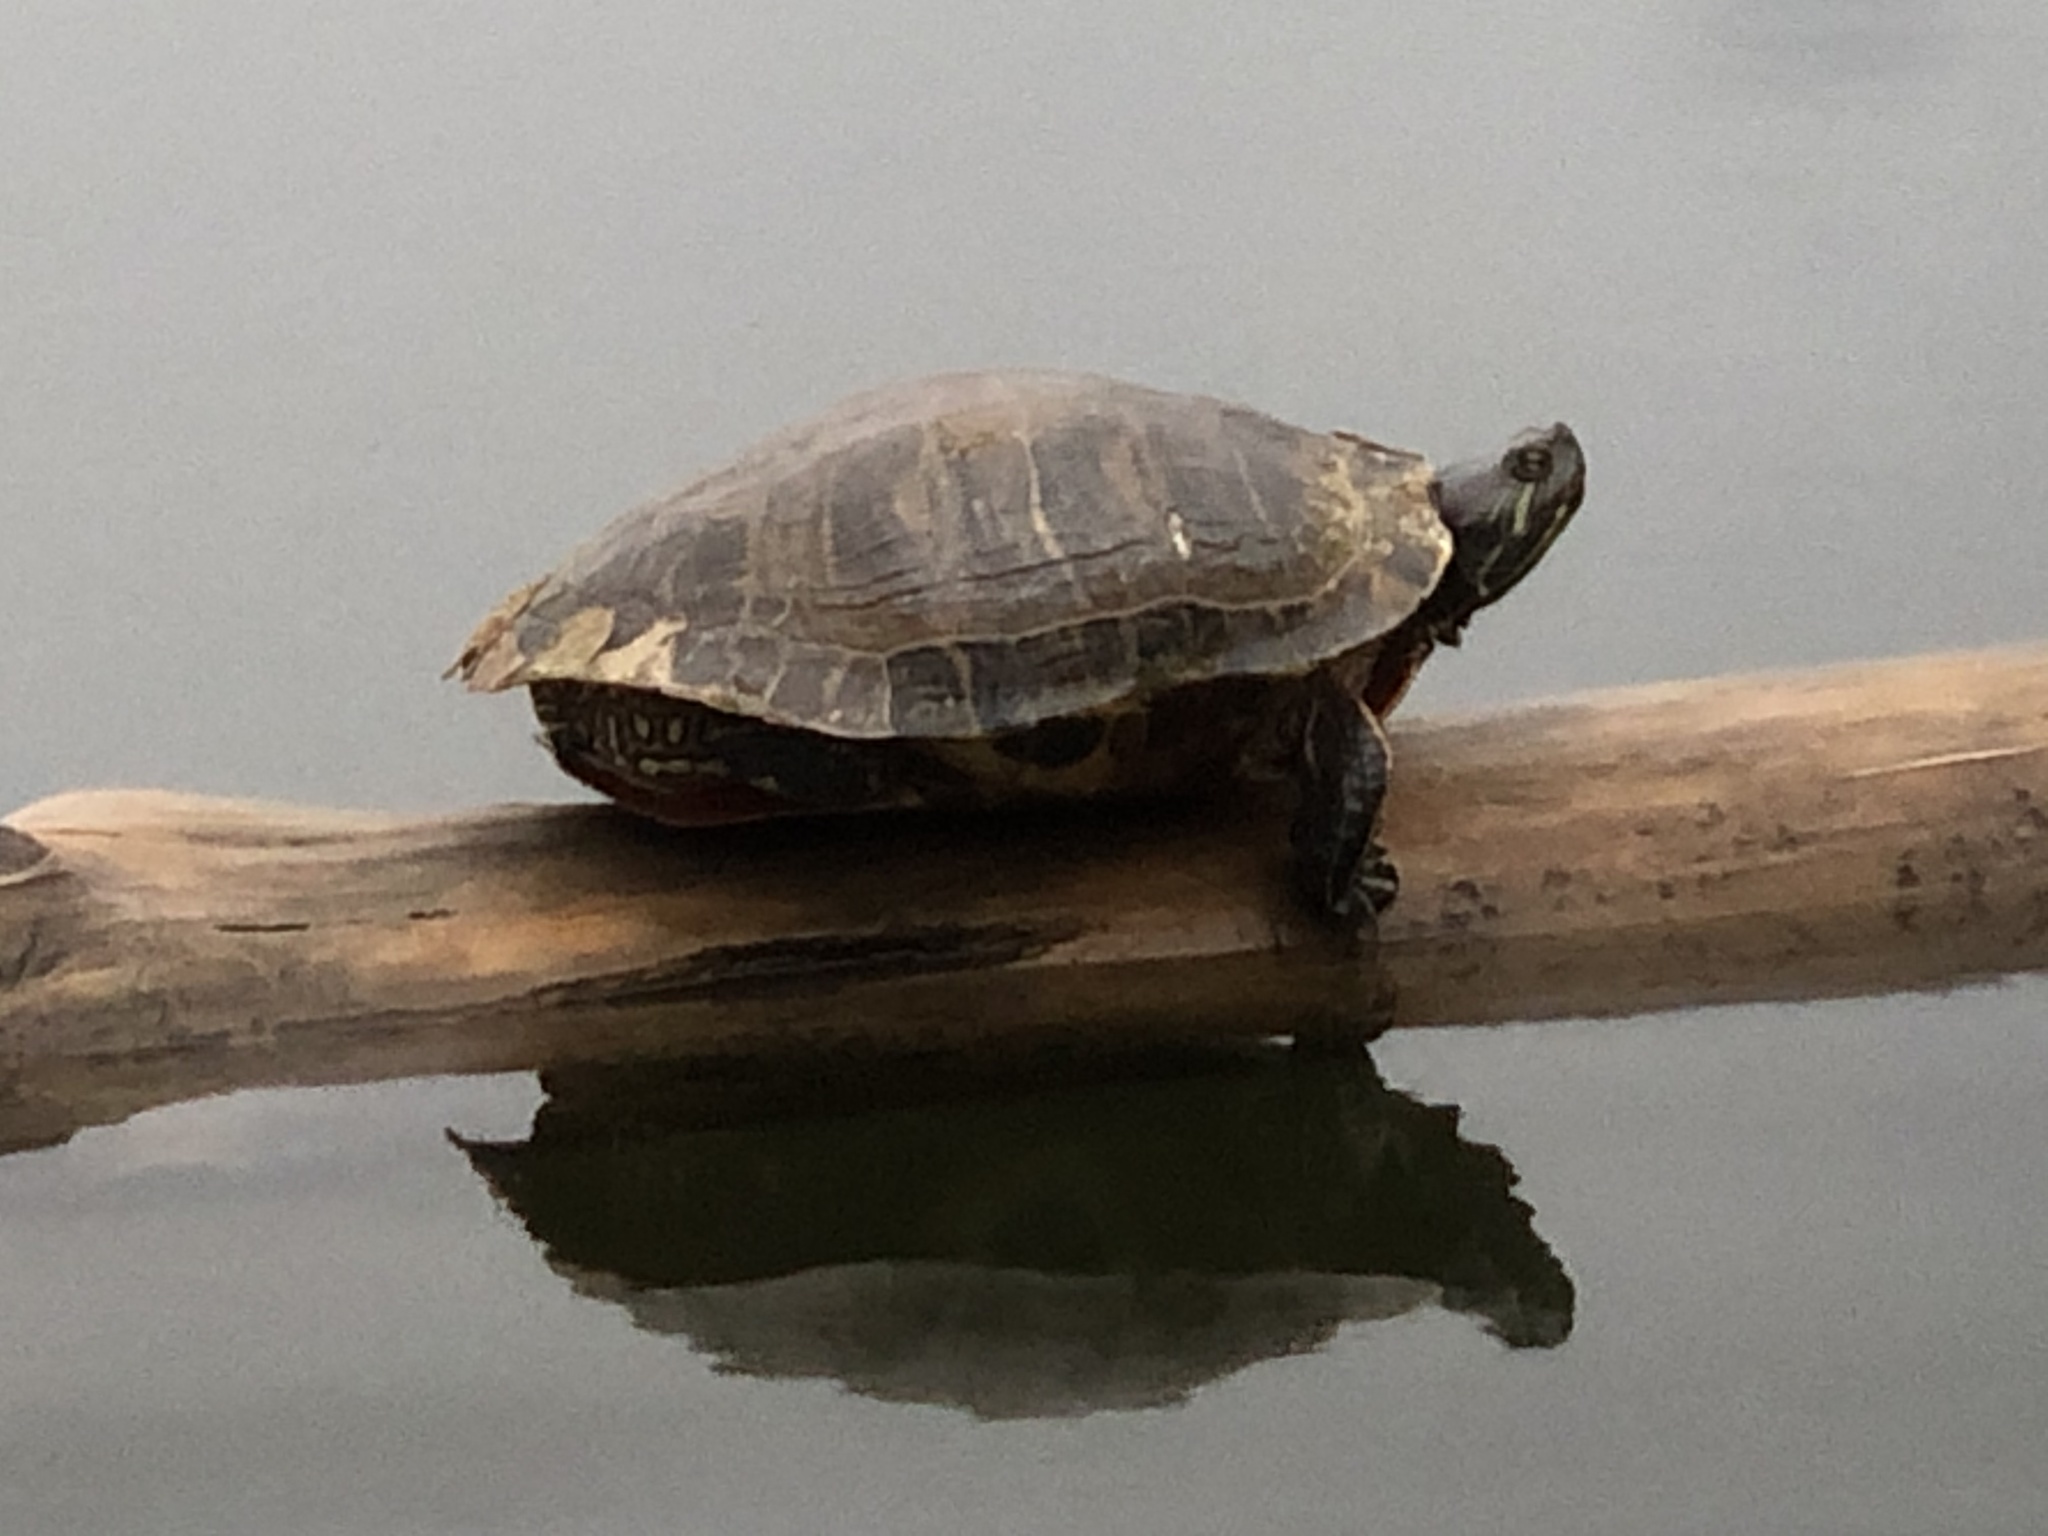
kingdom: Animalia
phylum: Chordata
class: Testudines
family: Emydidae
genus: Trachemys
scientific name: Trachemys scripta
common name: Slider
